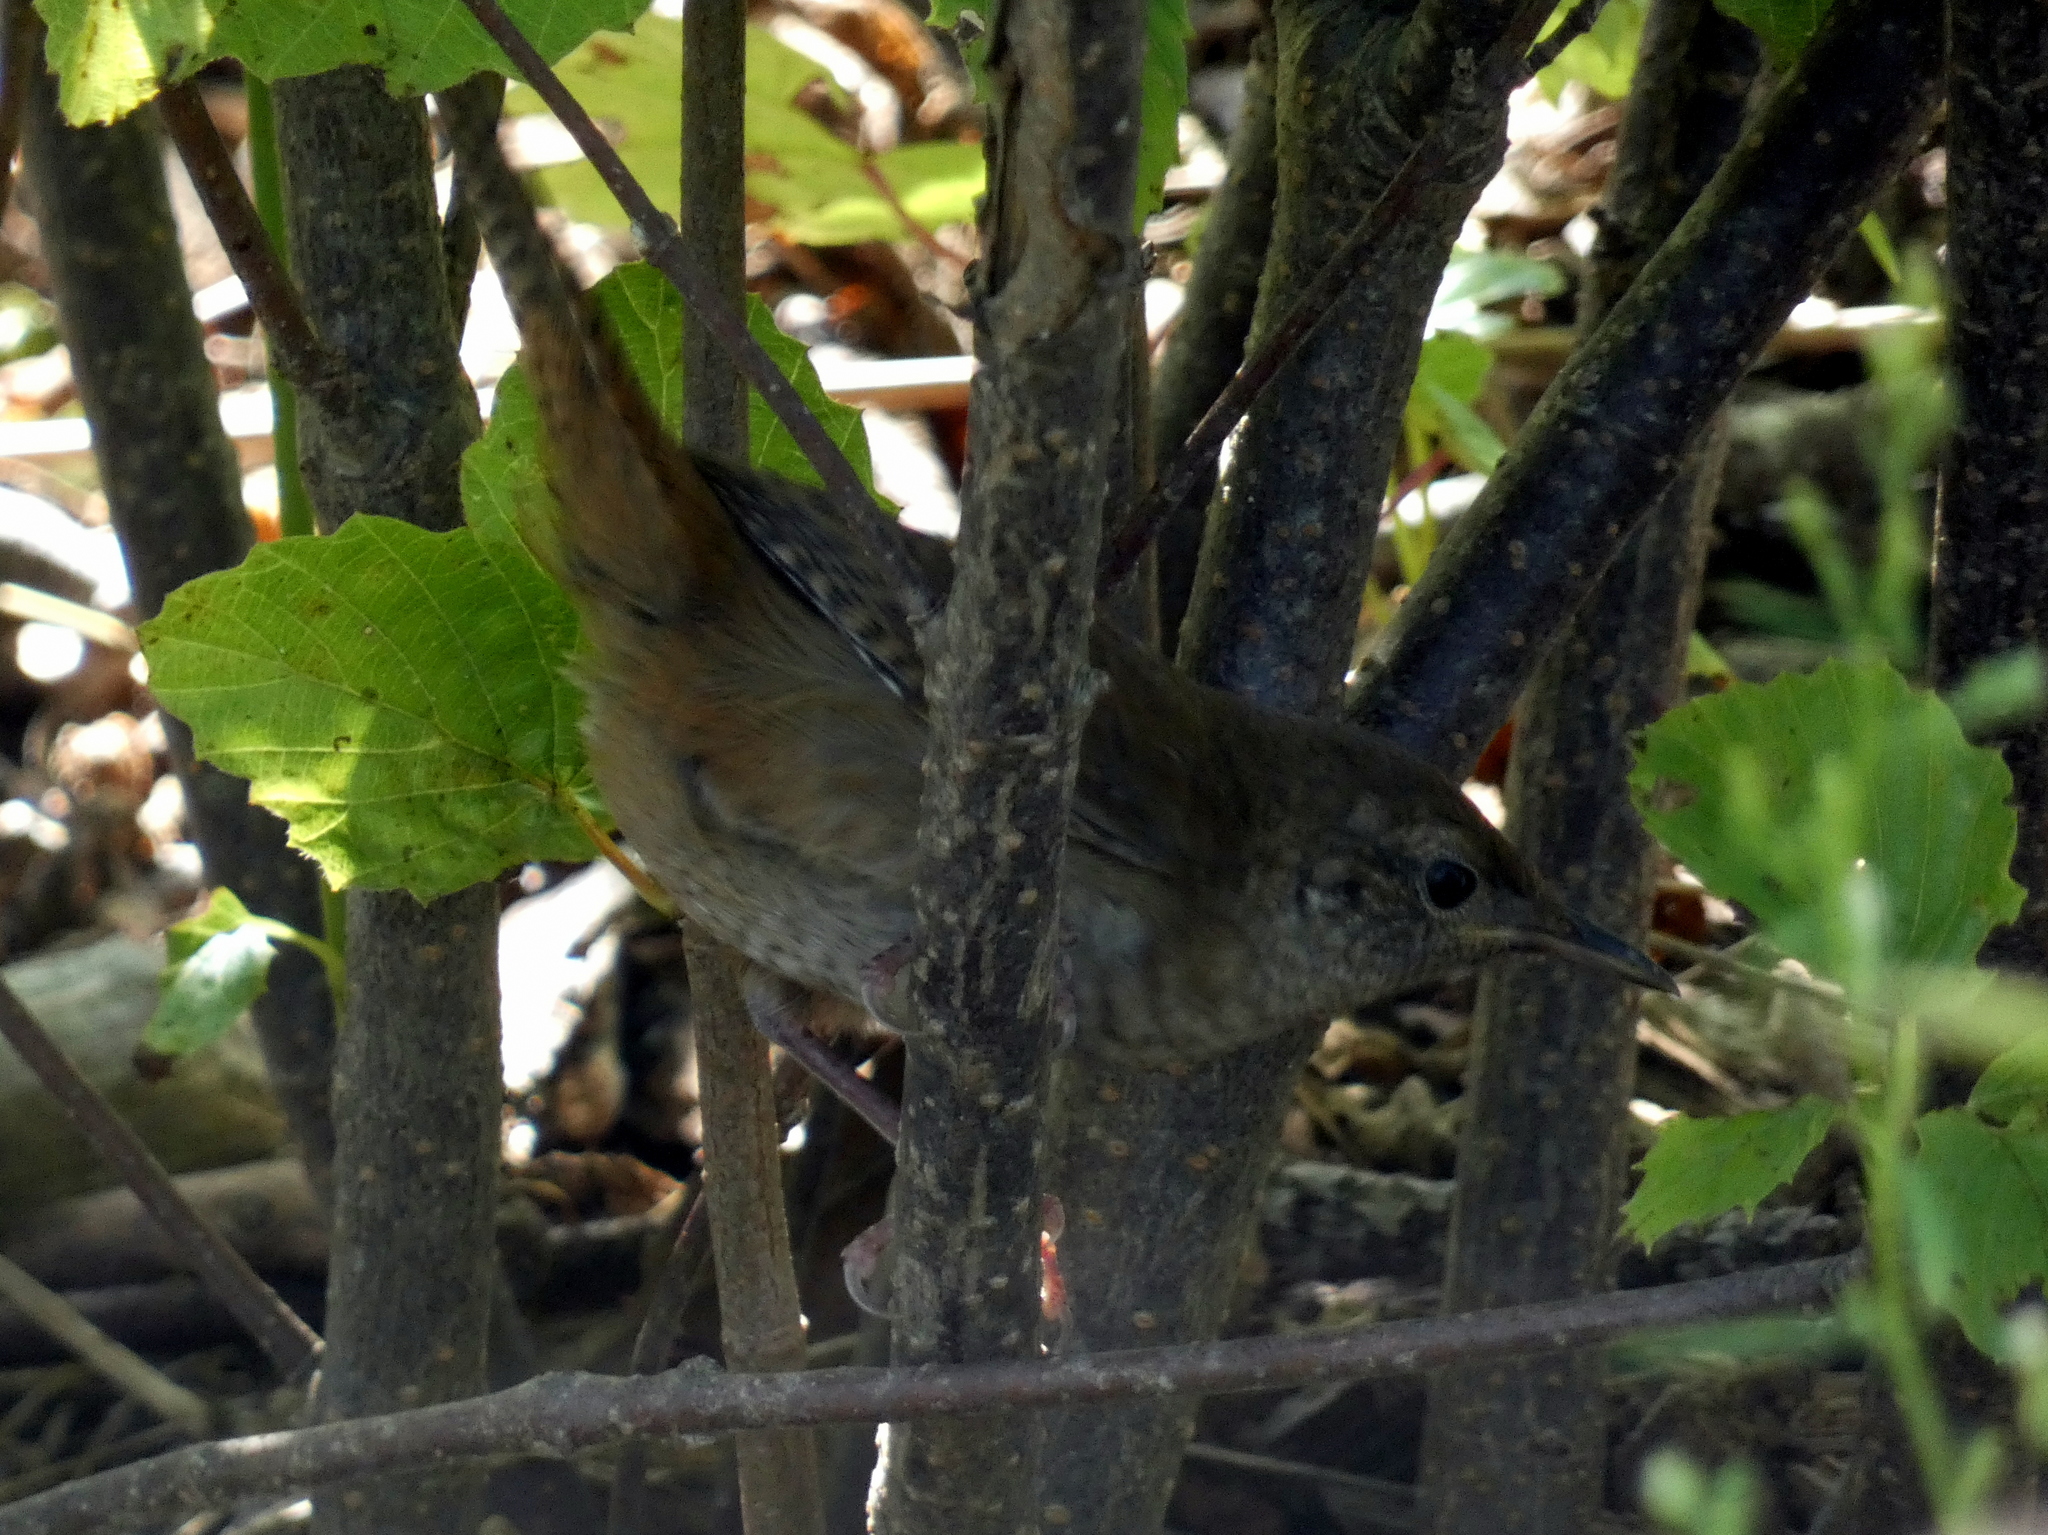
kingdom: Animalia
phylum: Chordata
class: Aves
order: Passeriformes
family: Troglodytidae
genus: Troglodytes
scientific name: Troglodytes aedon
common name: House wren
